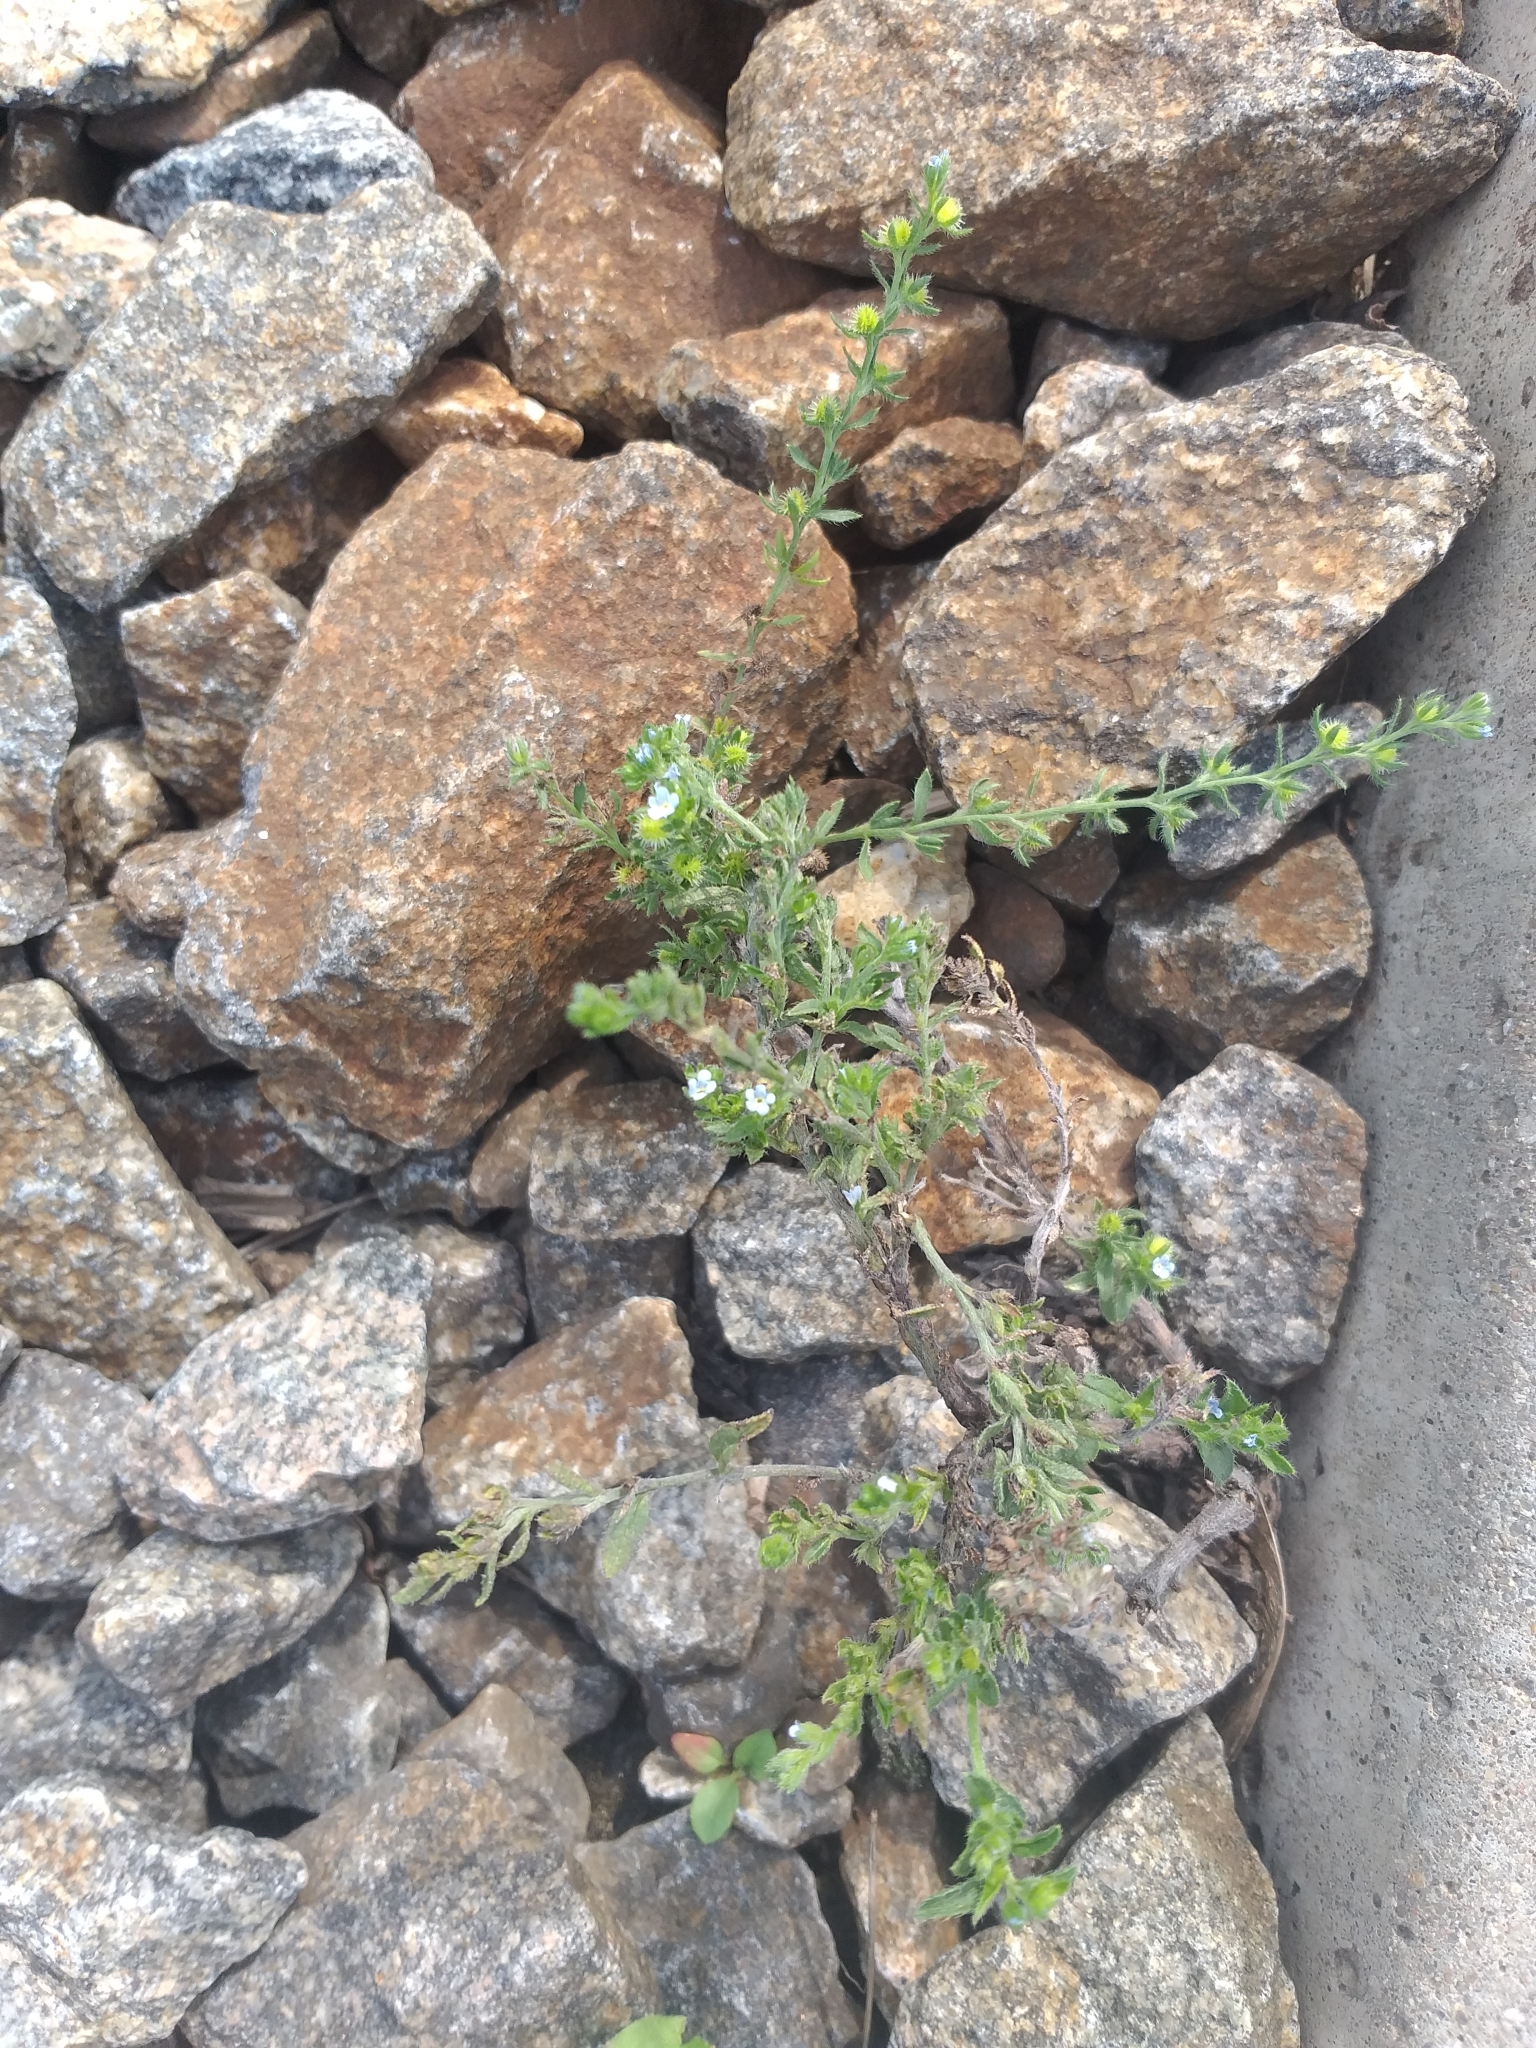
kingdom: Plantae
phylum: Tracheophyta
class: Magnoliopsida
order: Boraginales
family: Boraginaceae
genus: Lappula
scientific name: Lappula squarrosa
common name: European stickseed
